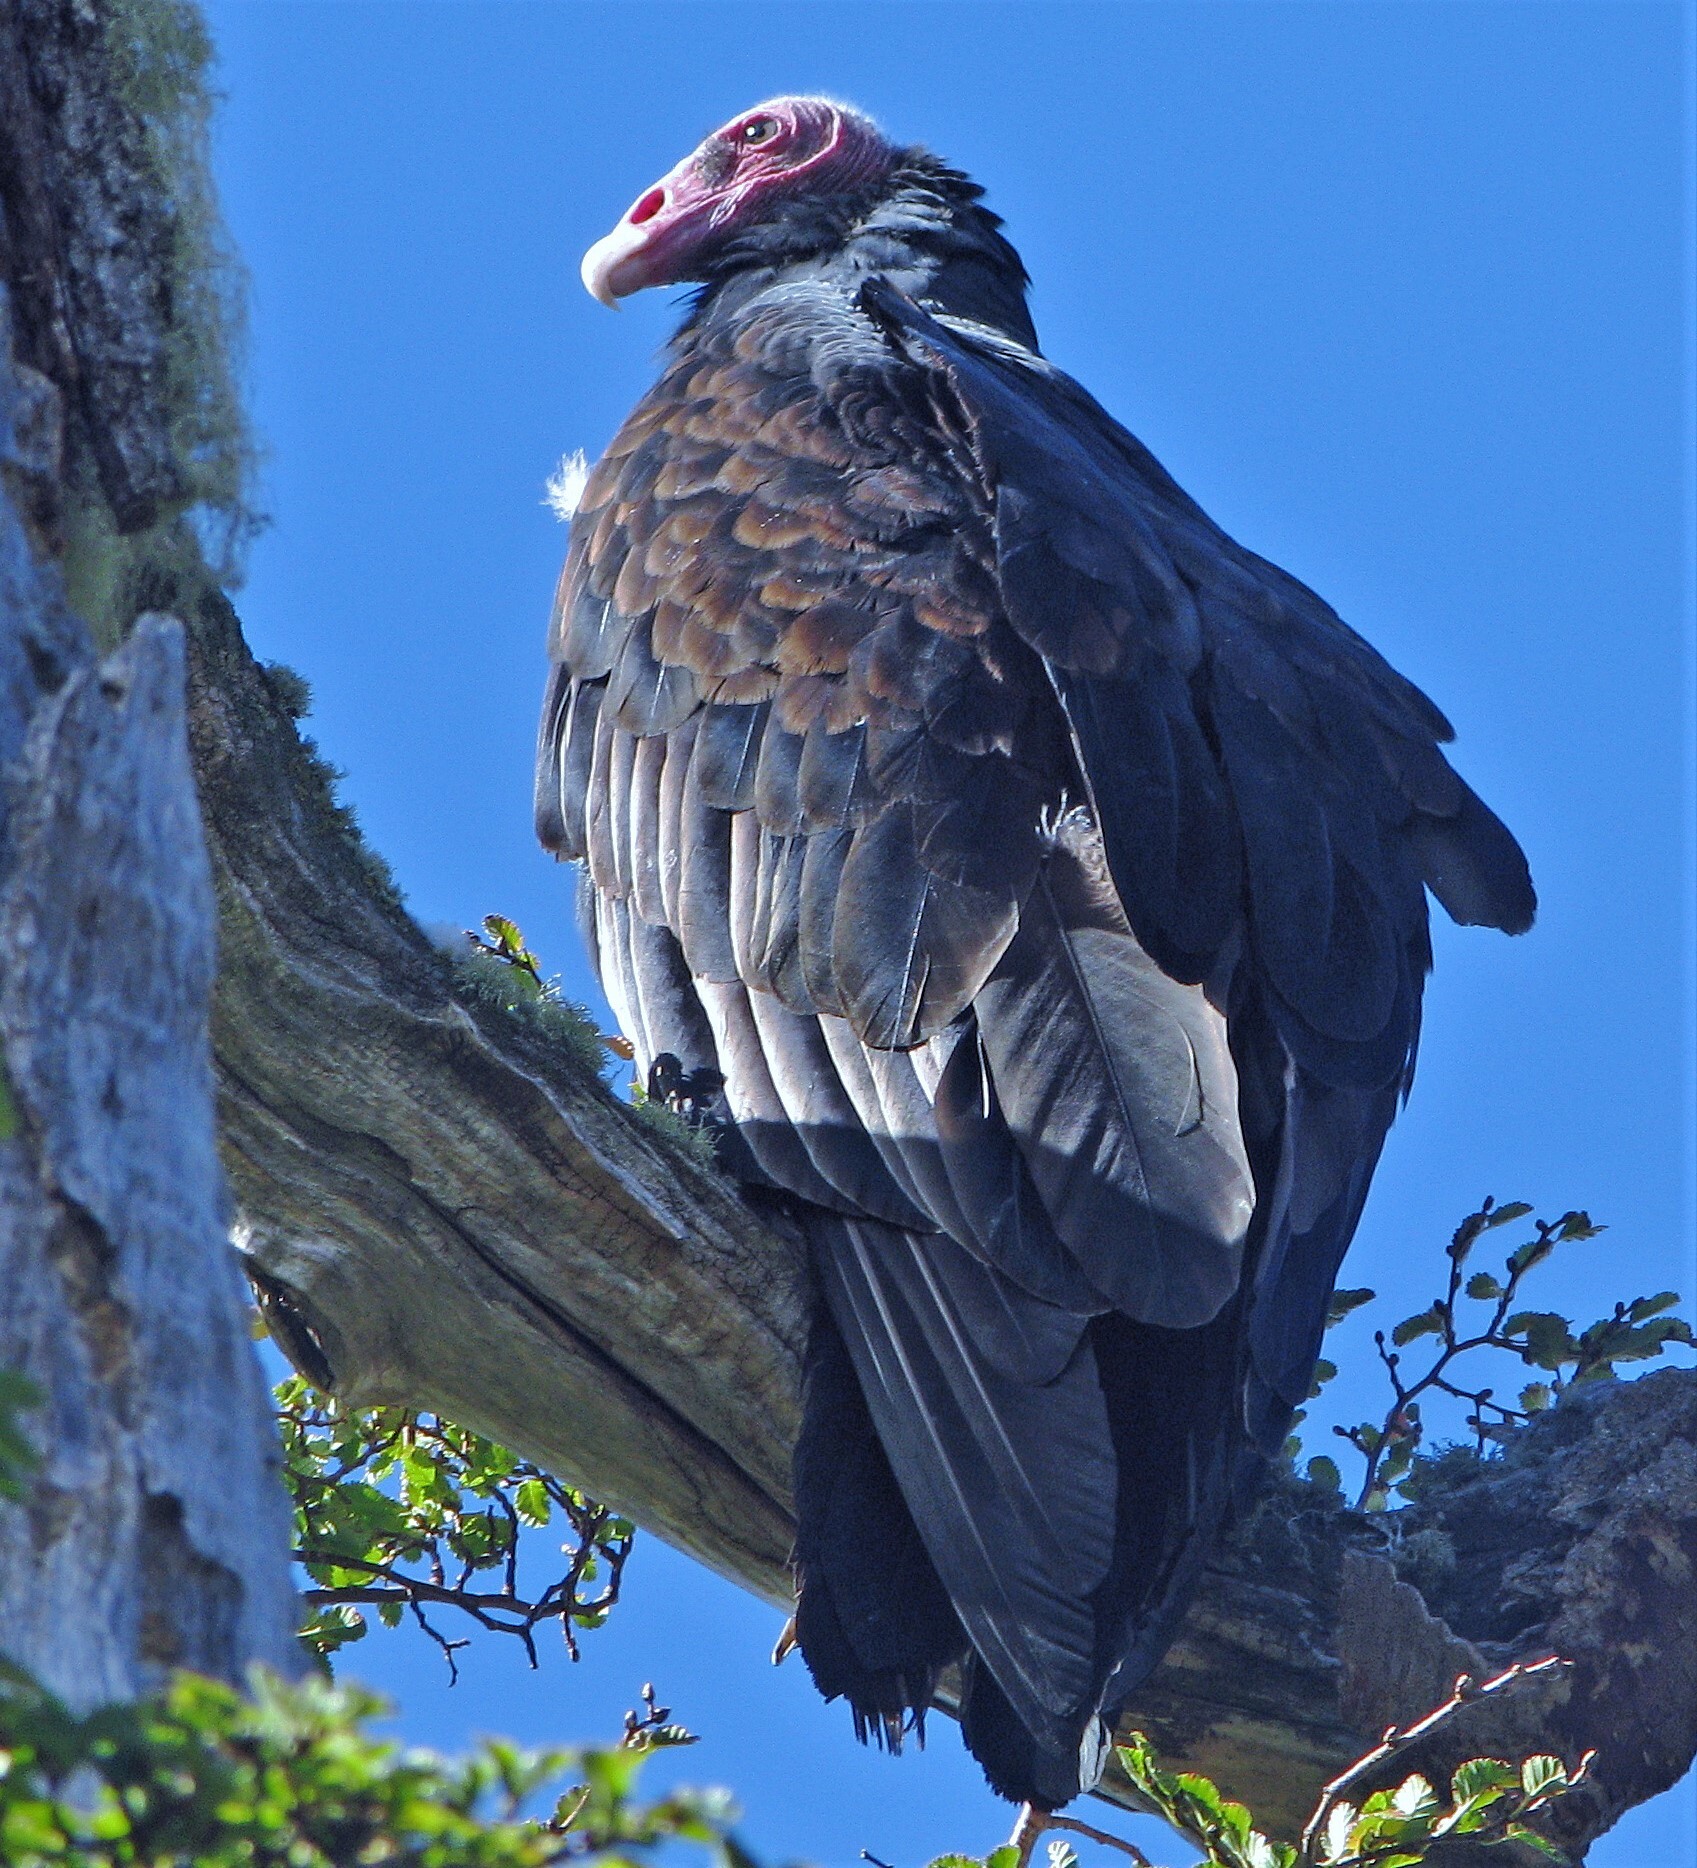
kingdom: Animalia
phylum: Chordata
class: Aves
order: Accipitriformes
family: Cathartidae
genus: Cathartes
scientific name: Cathartes aura
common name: Turkey vulture
